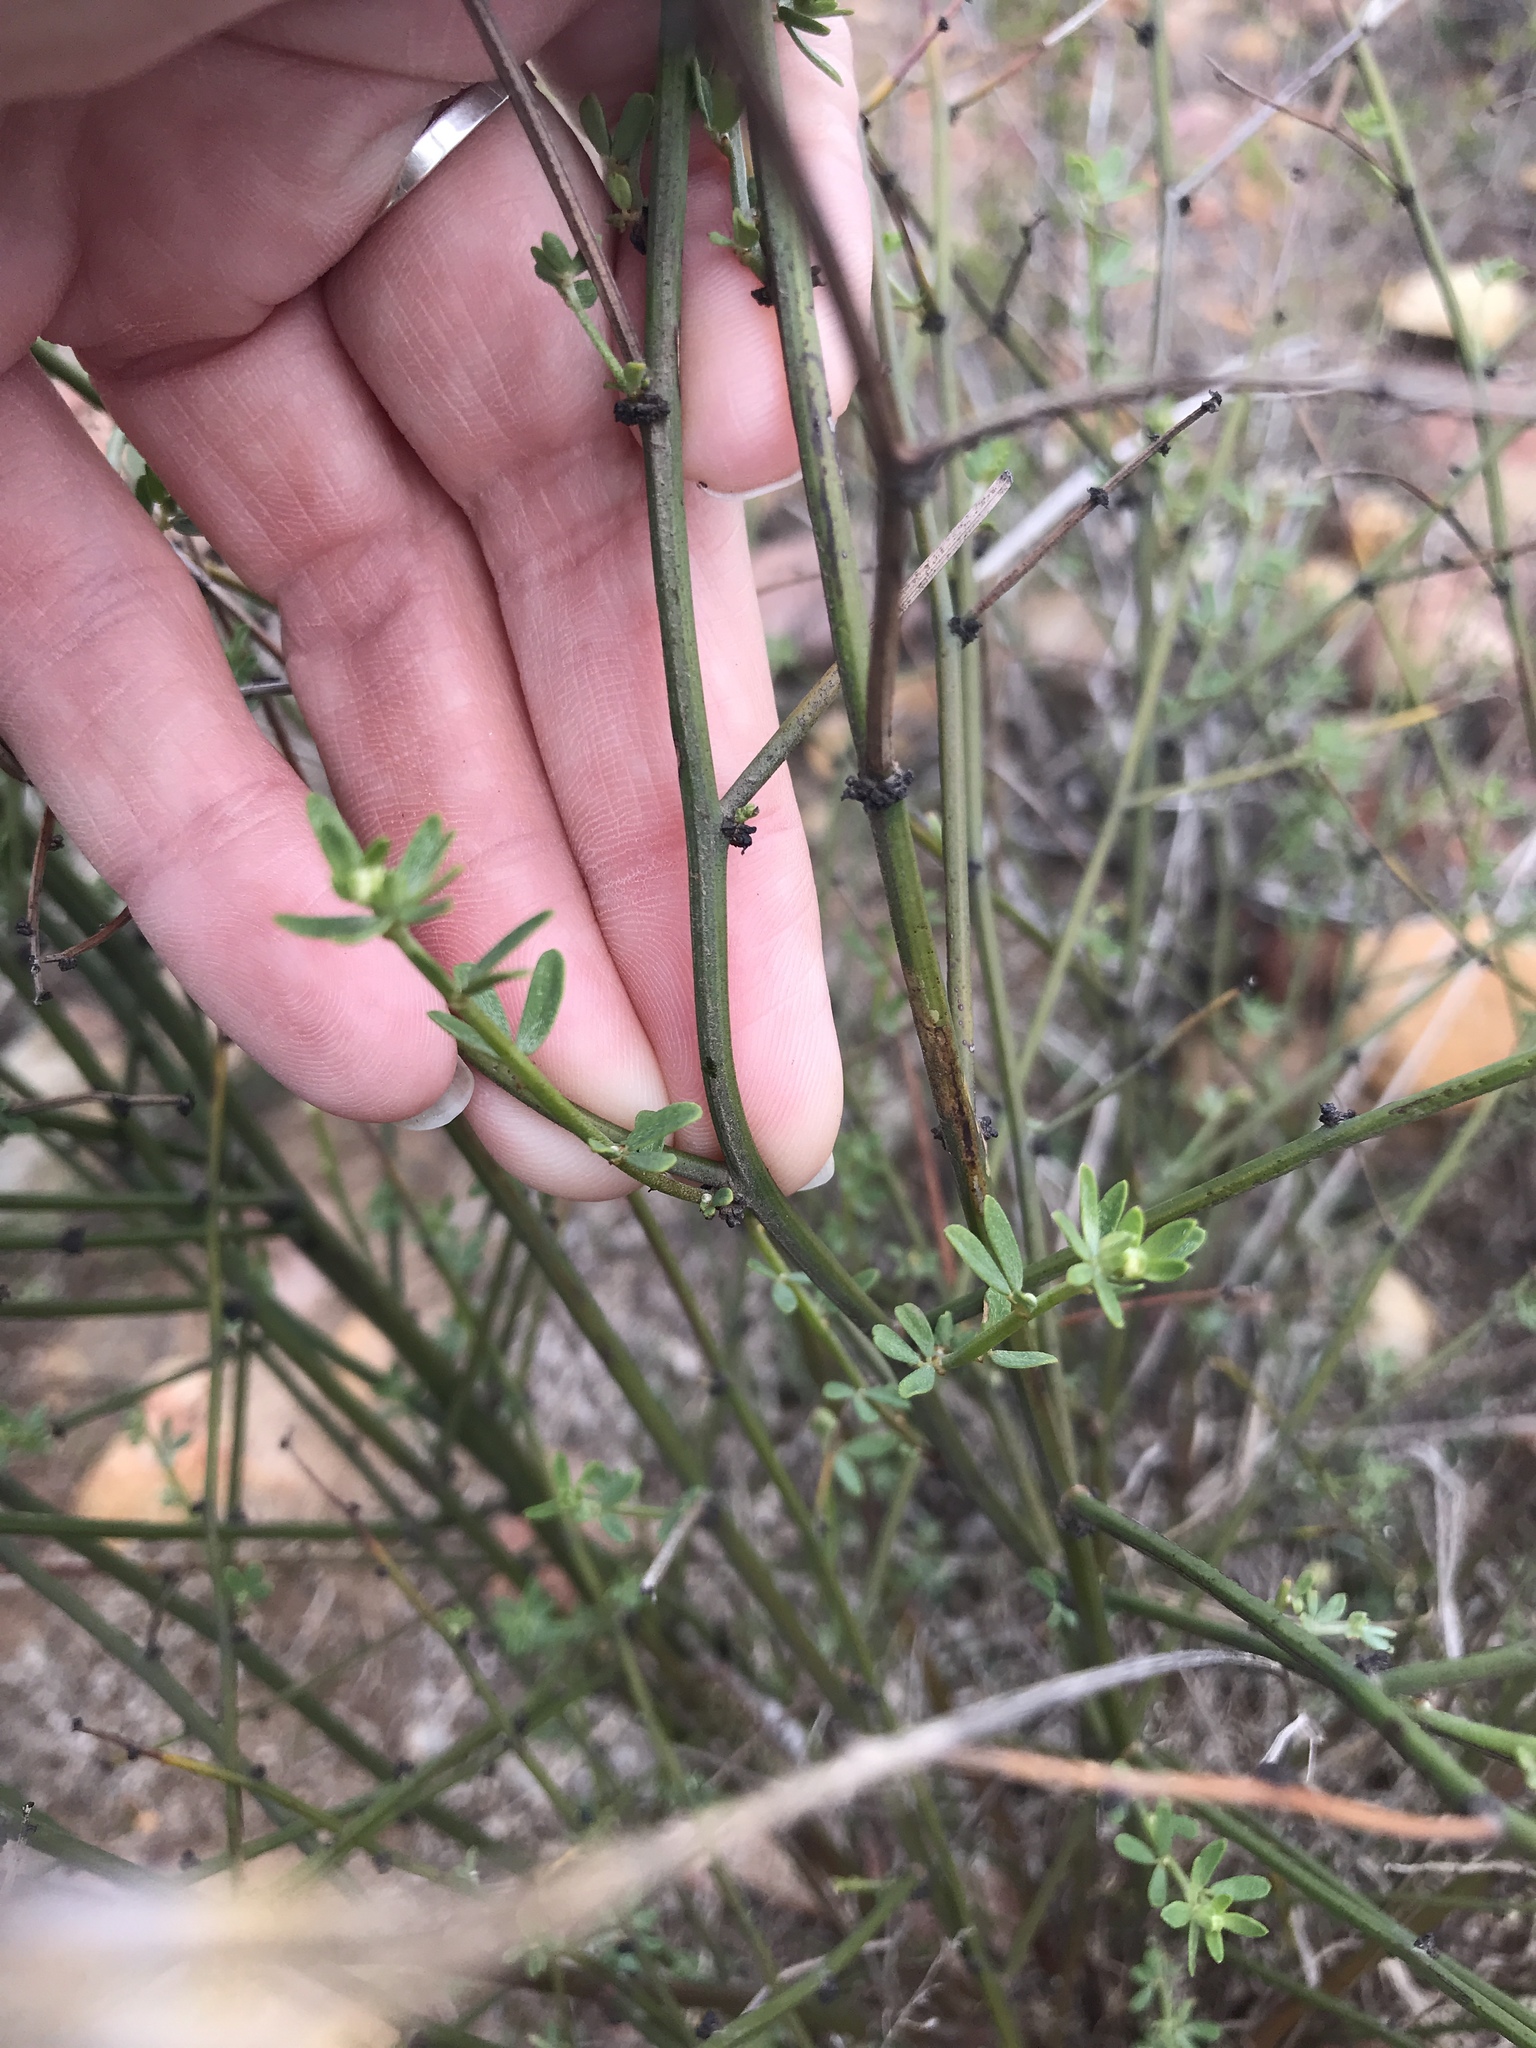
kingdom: Plantae
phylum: Tracheophyta
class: Magnoliopsida
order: Fabales
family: Fabaceae
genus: Acmispon
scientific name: Acmispon glaber
